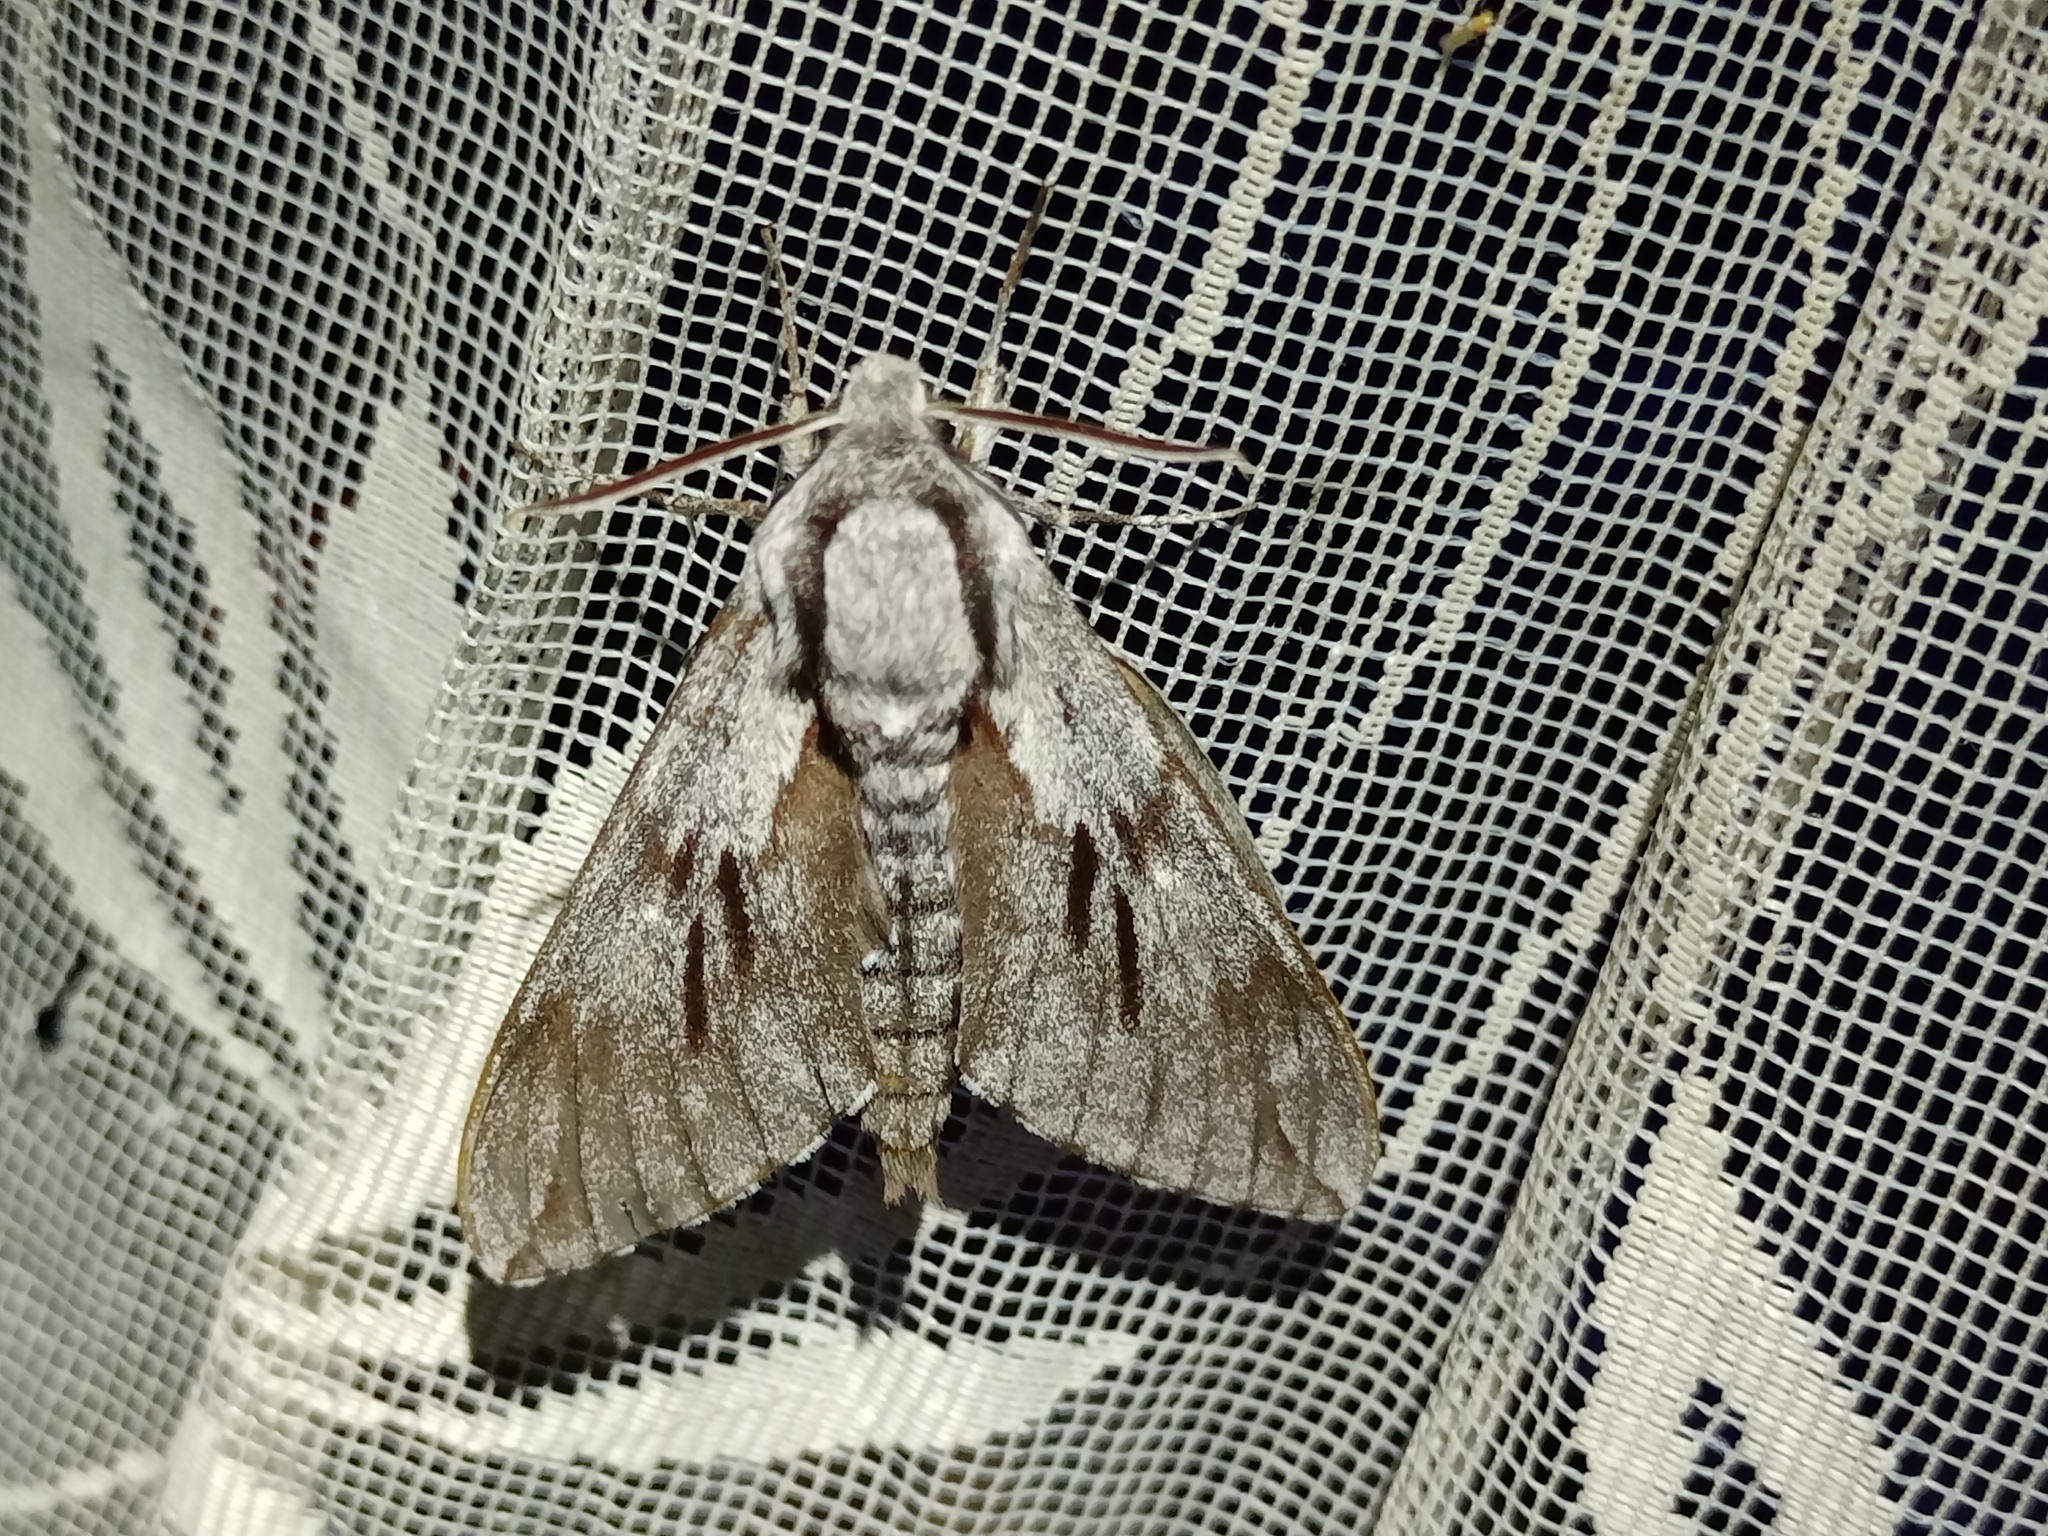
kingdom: Animalia
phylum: Arthropoda
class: Insecta
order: Lepidoptera
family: Sphingidae
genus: Sphinx
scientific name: Sphinx pinastri
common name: Pine hawk-moth
